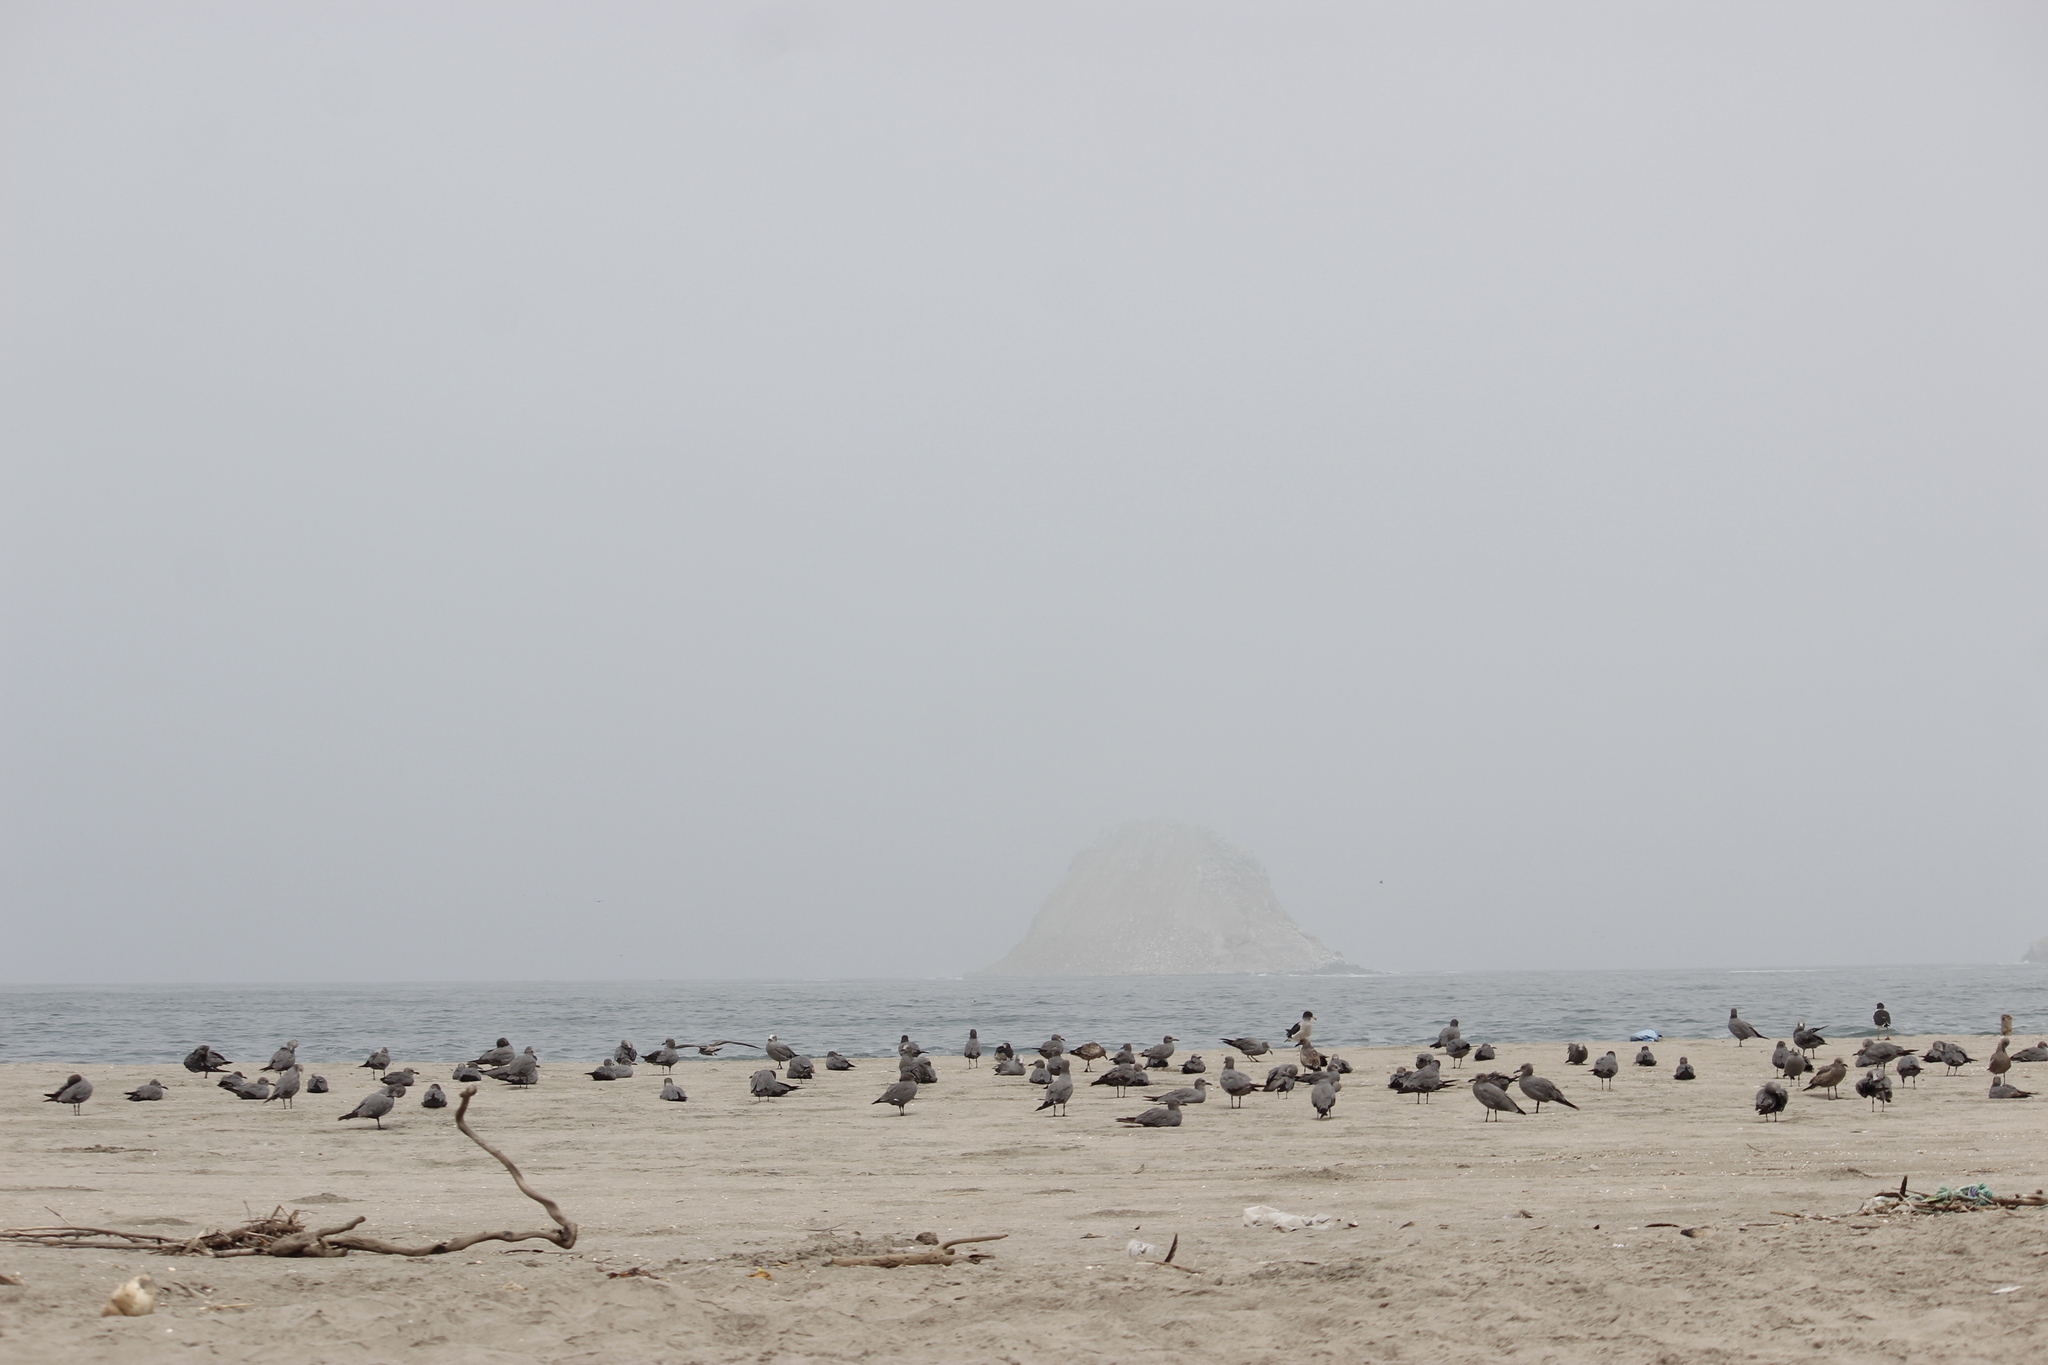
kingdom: Animalia
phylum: Chordata
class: Aves
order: Charadriiformes
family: Laridae
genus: Leucophaeus
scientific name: Leucophaeus modestus
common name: Gray gull
